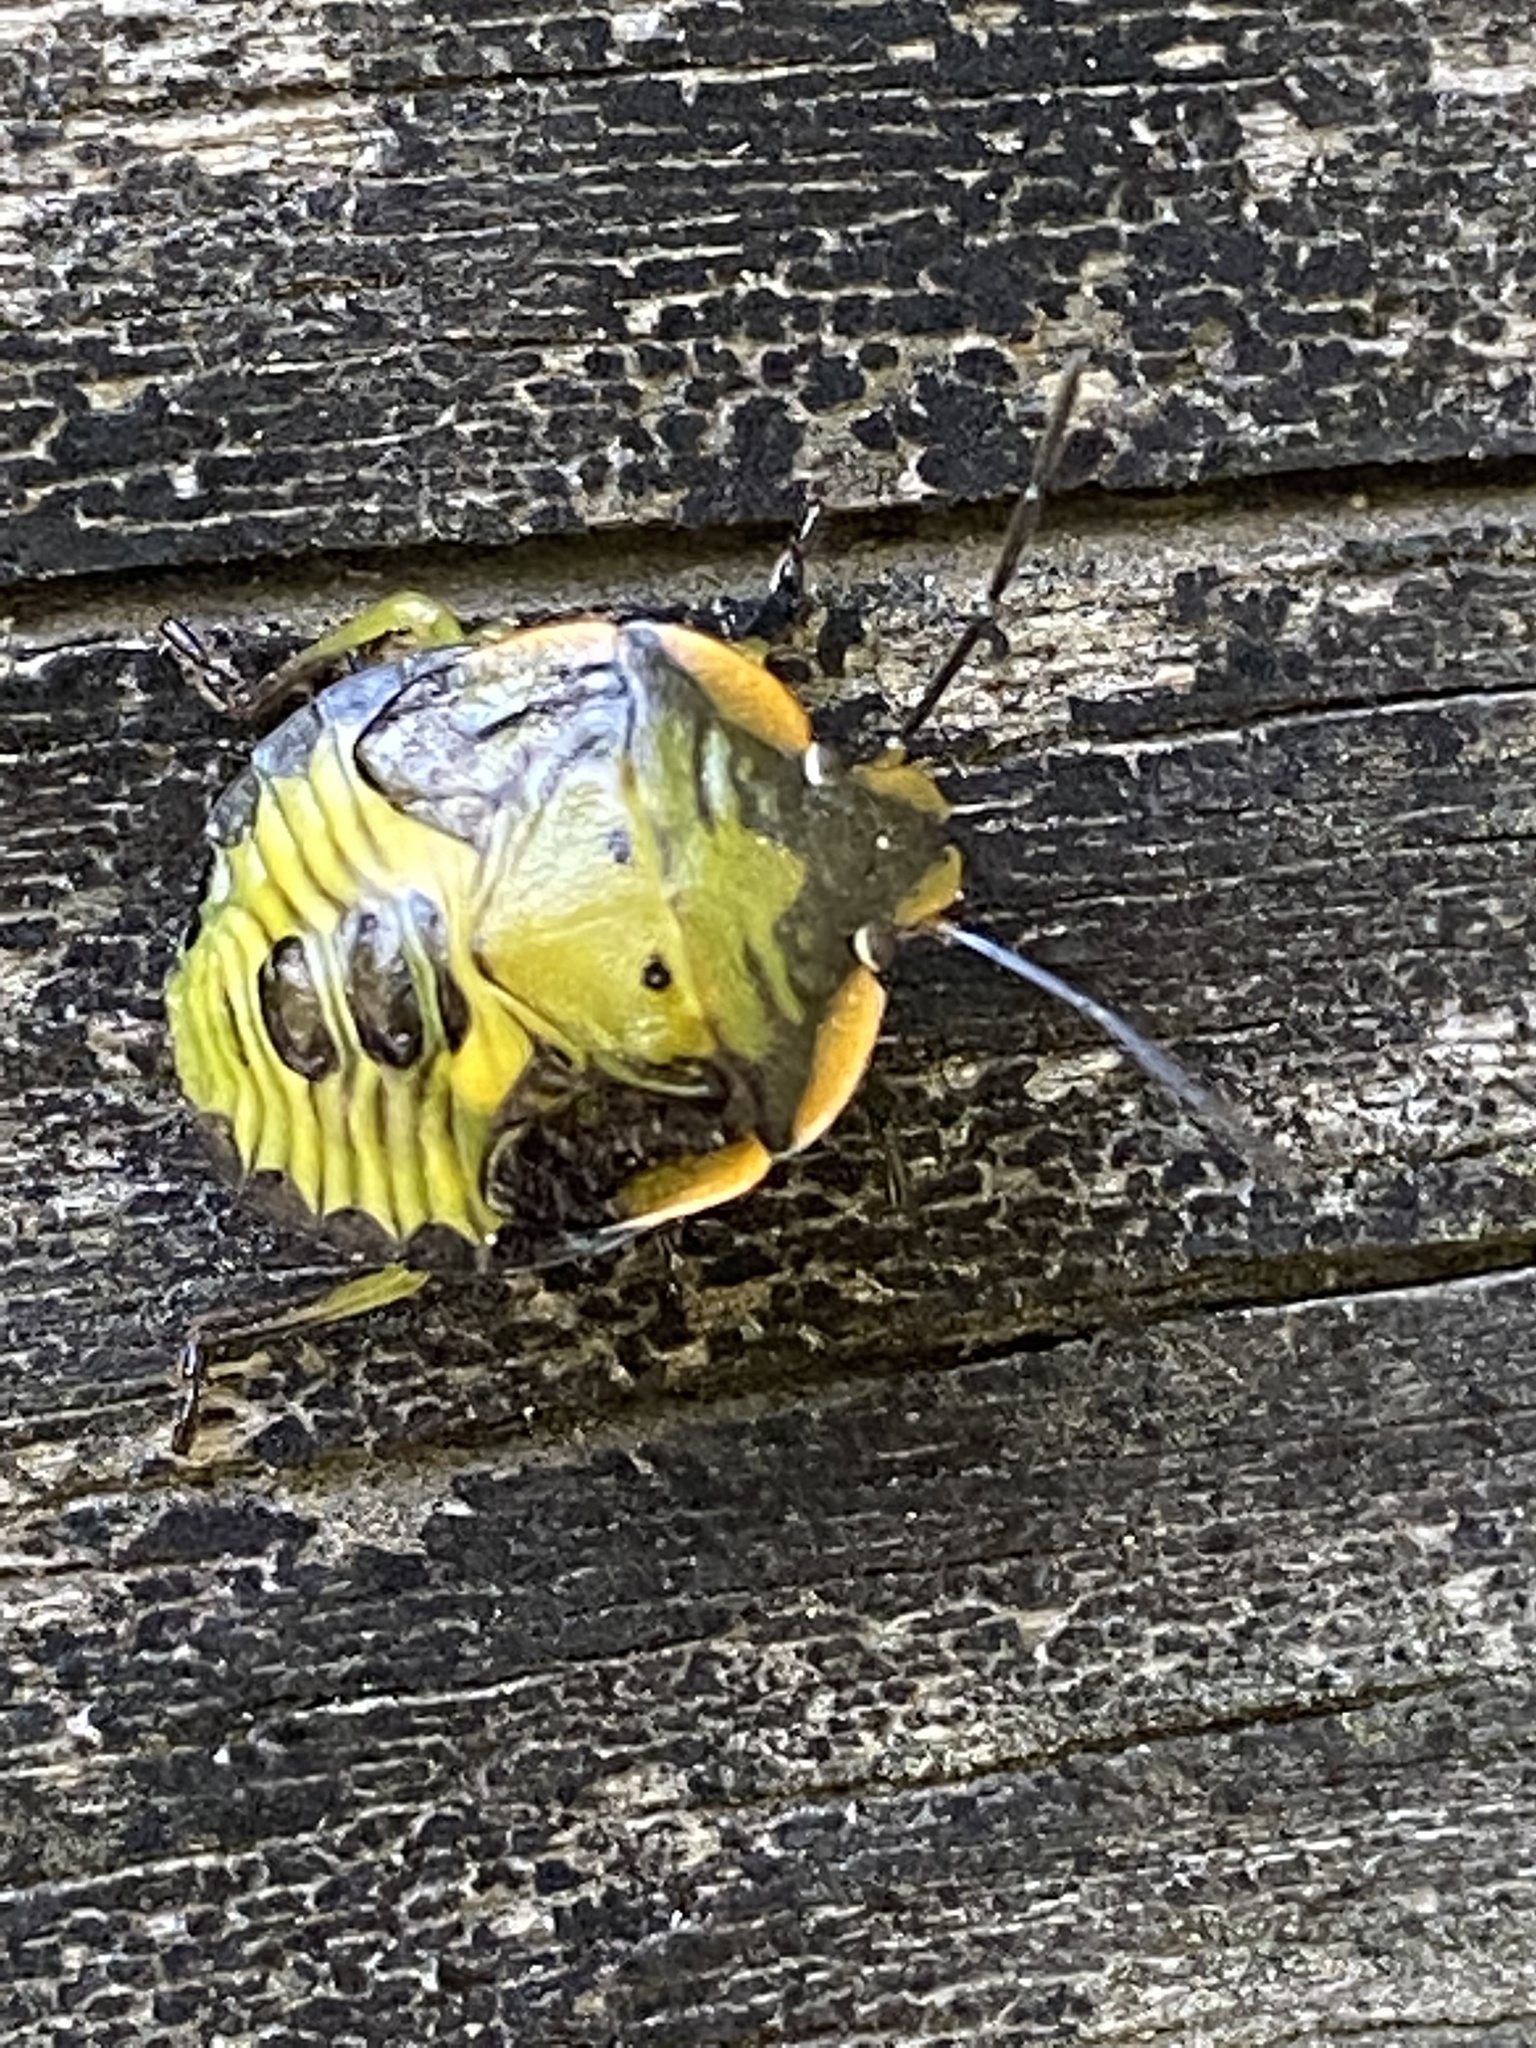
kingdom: Animalia
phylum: Arthropoda
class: Insecta
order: Hemiptera
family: Pentatomidae
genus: Chinavia
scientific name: Chinavia hilaris
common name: Green stink bug
